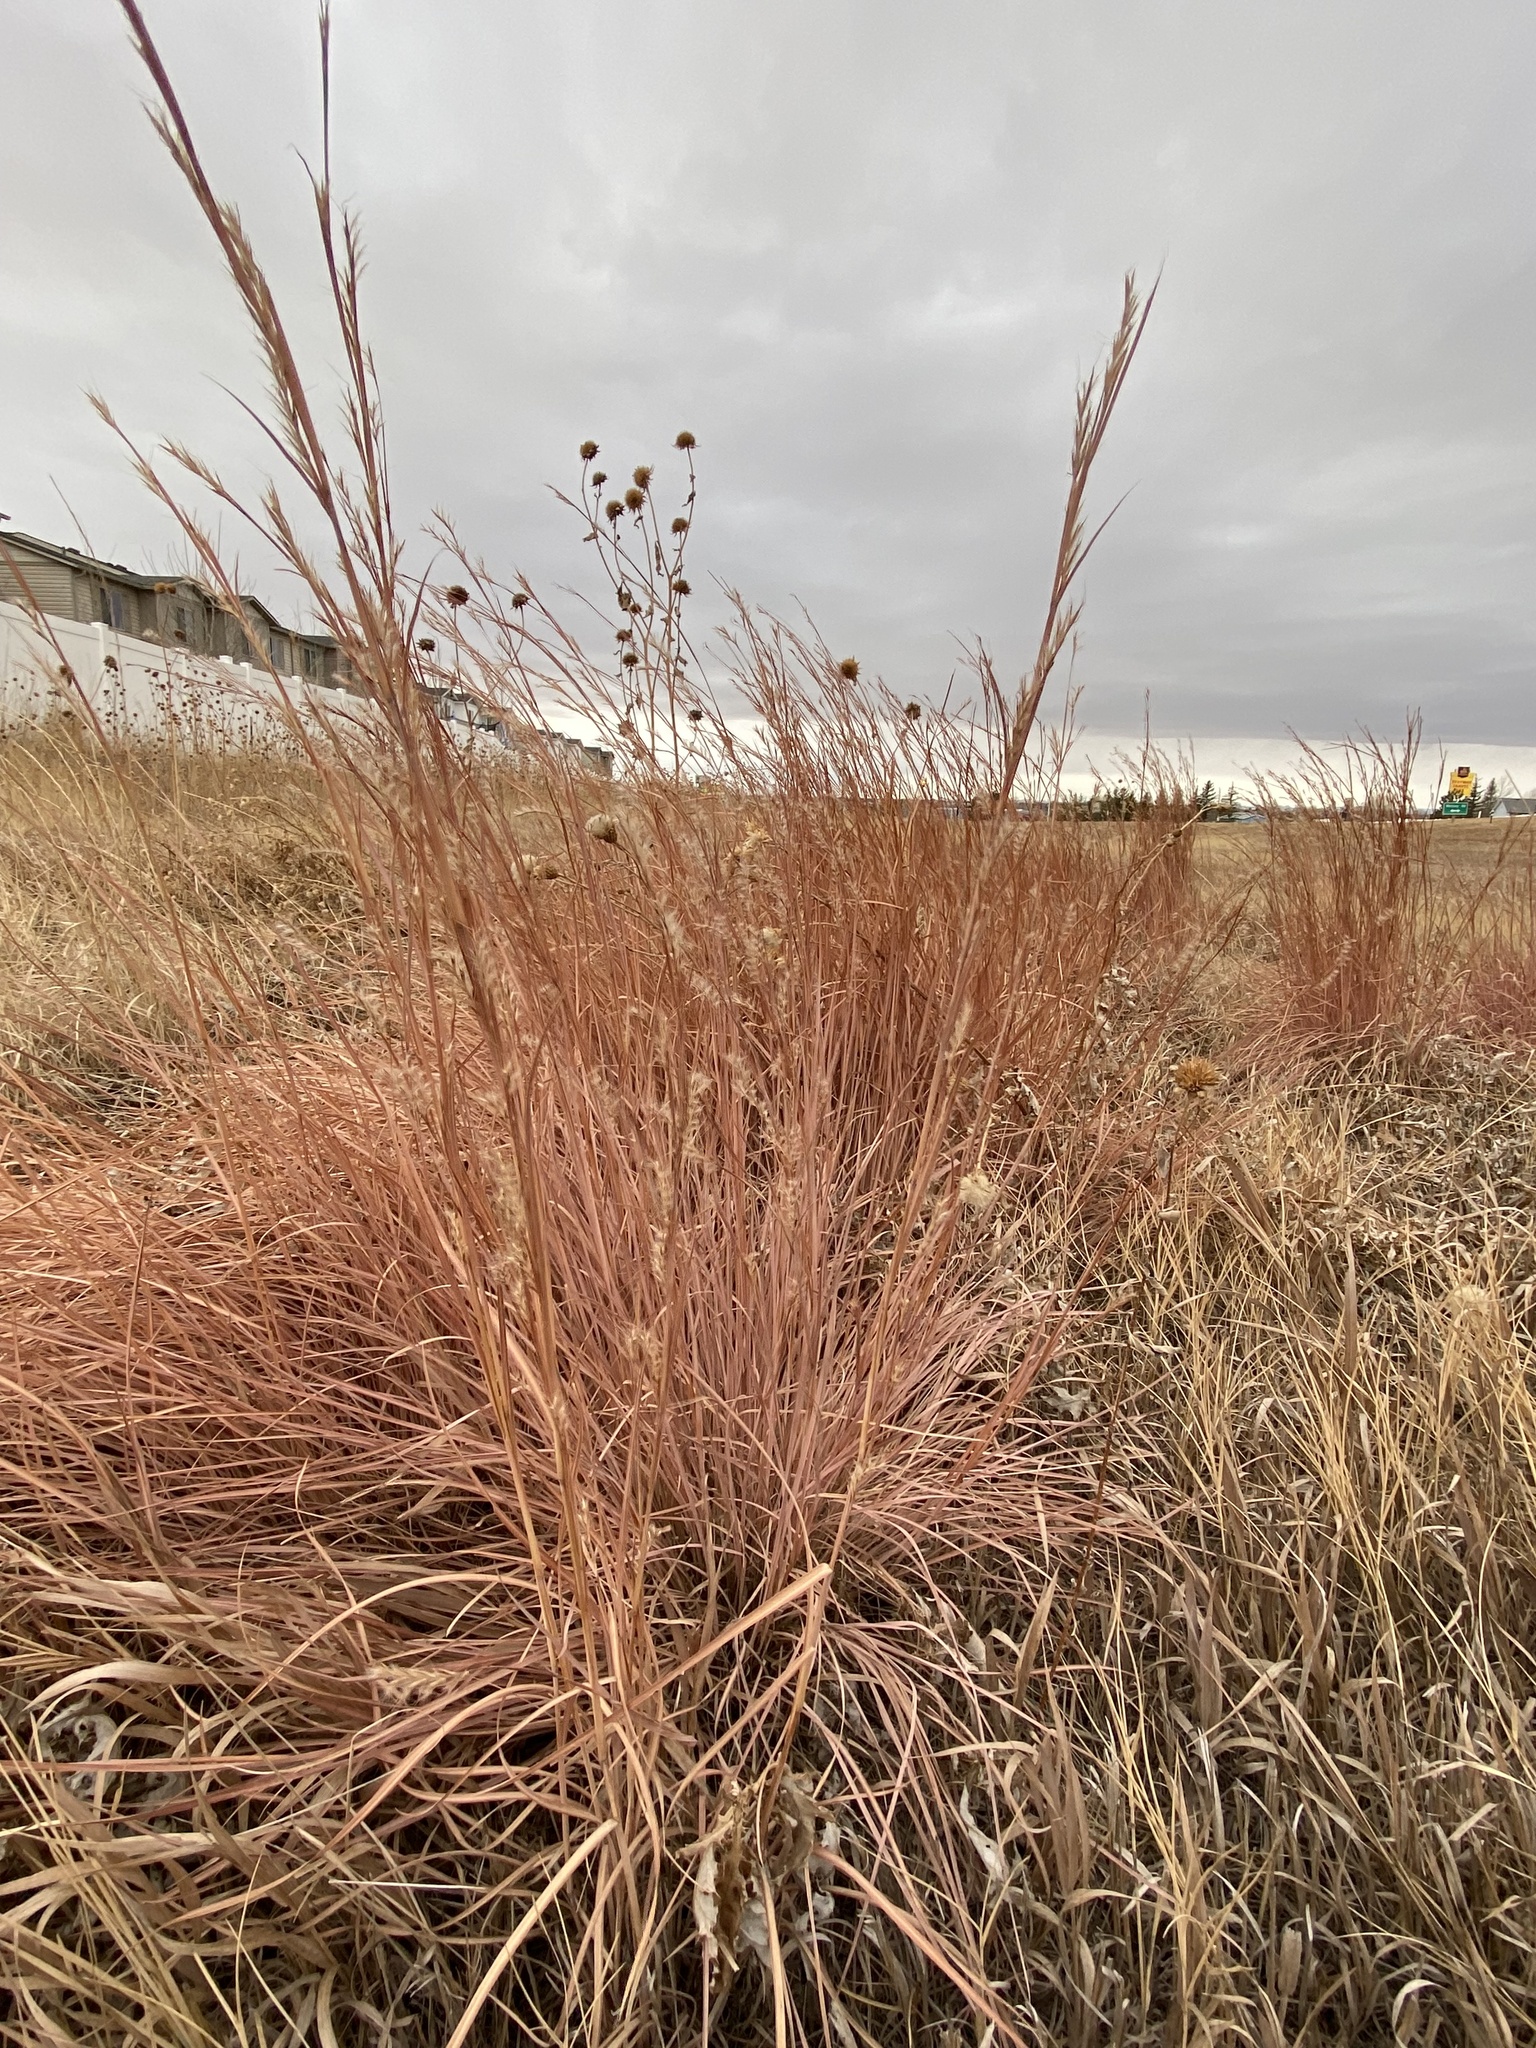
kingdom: Plantae
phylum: Tracheophyta
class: Liliopsida
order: Poales
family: Poaceae
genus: Schizachyrium
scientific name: Schizachyrium scoparium
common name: Little bluestem
